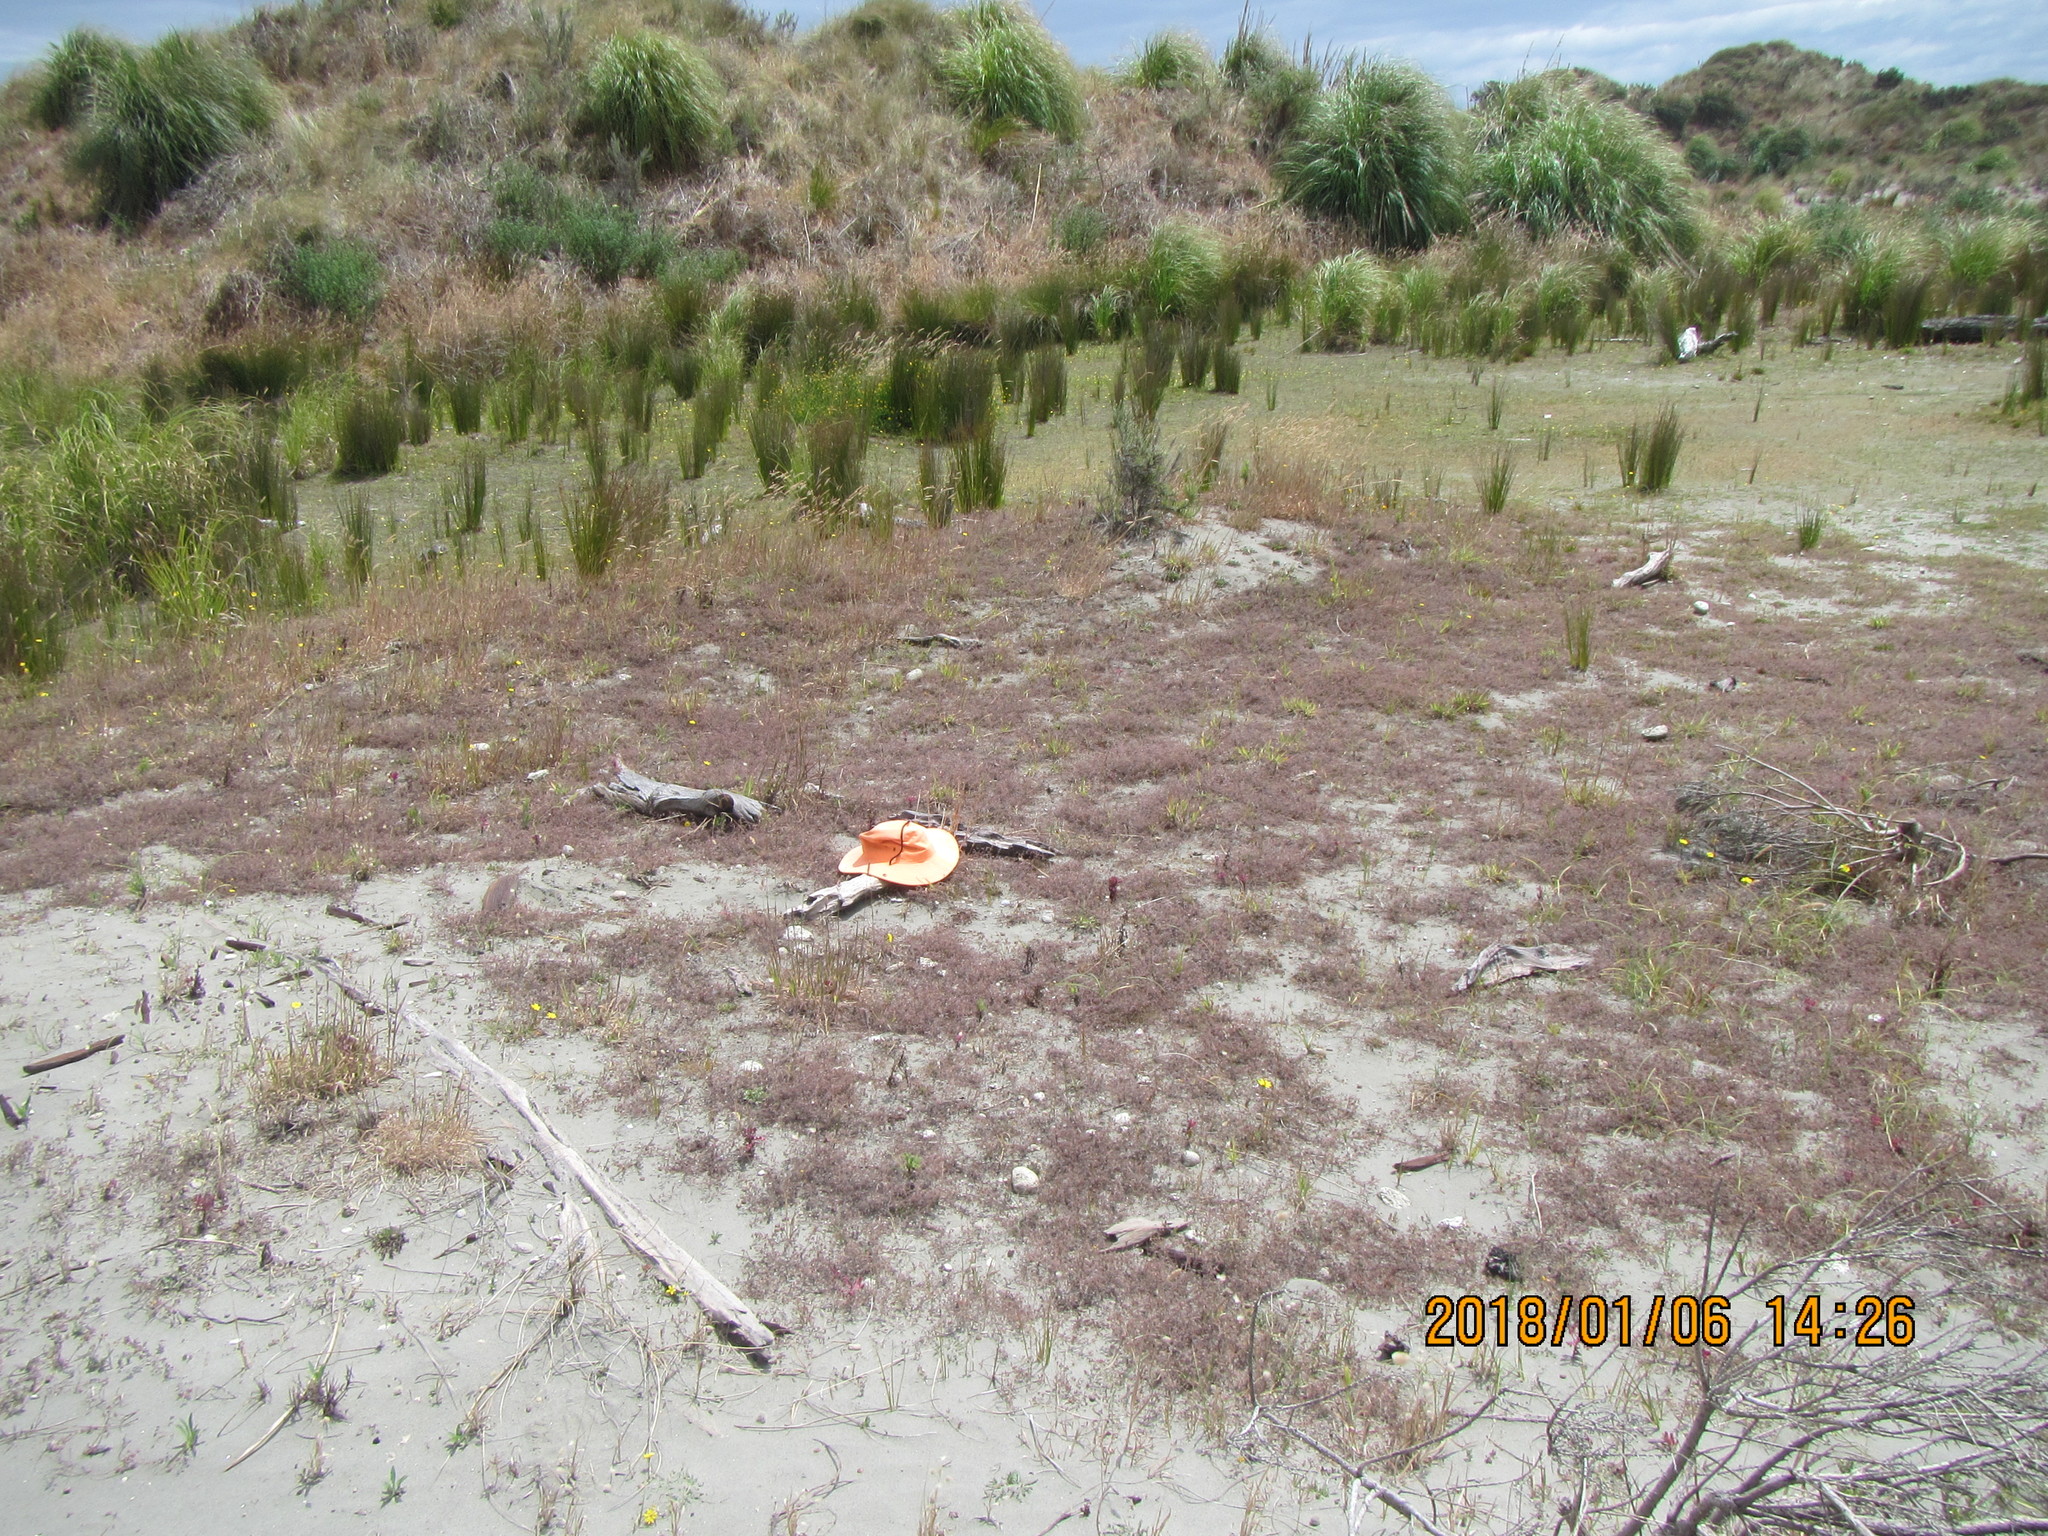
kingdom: Animalia
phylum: Arthropoda
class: Arachnida
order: Araneae
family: Theridiidae
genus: Steatoda
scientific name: Steatoda lepida
